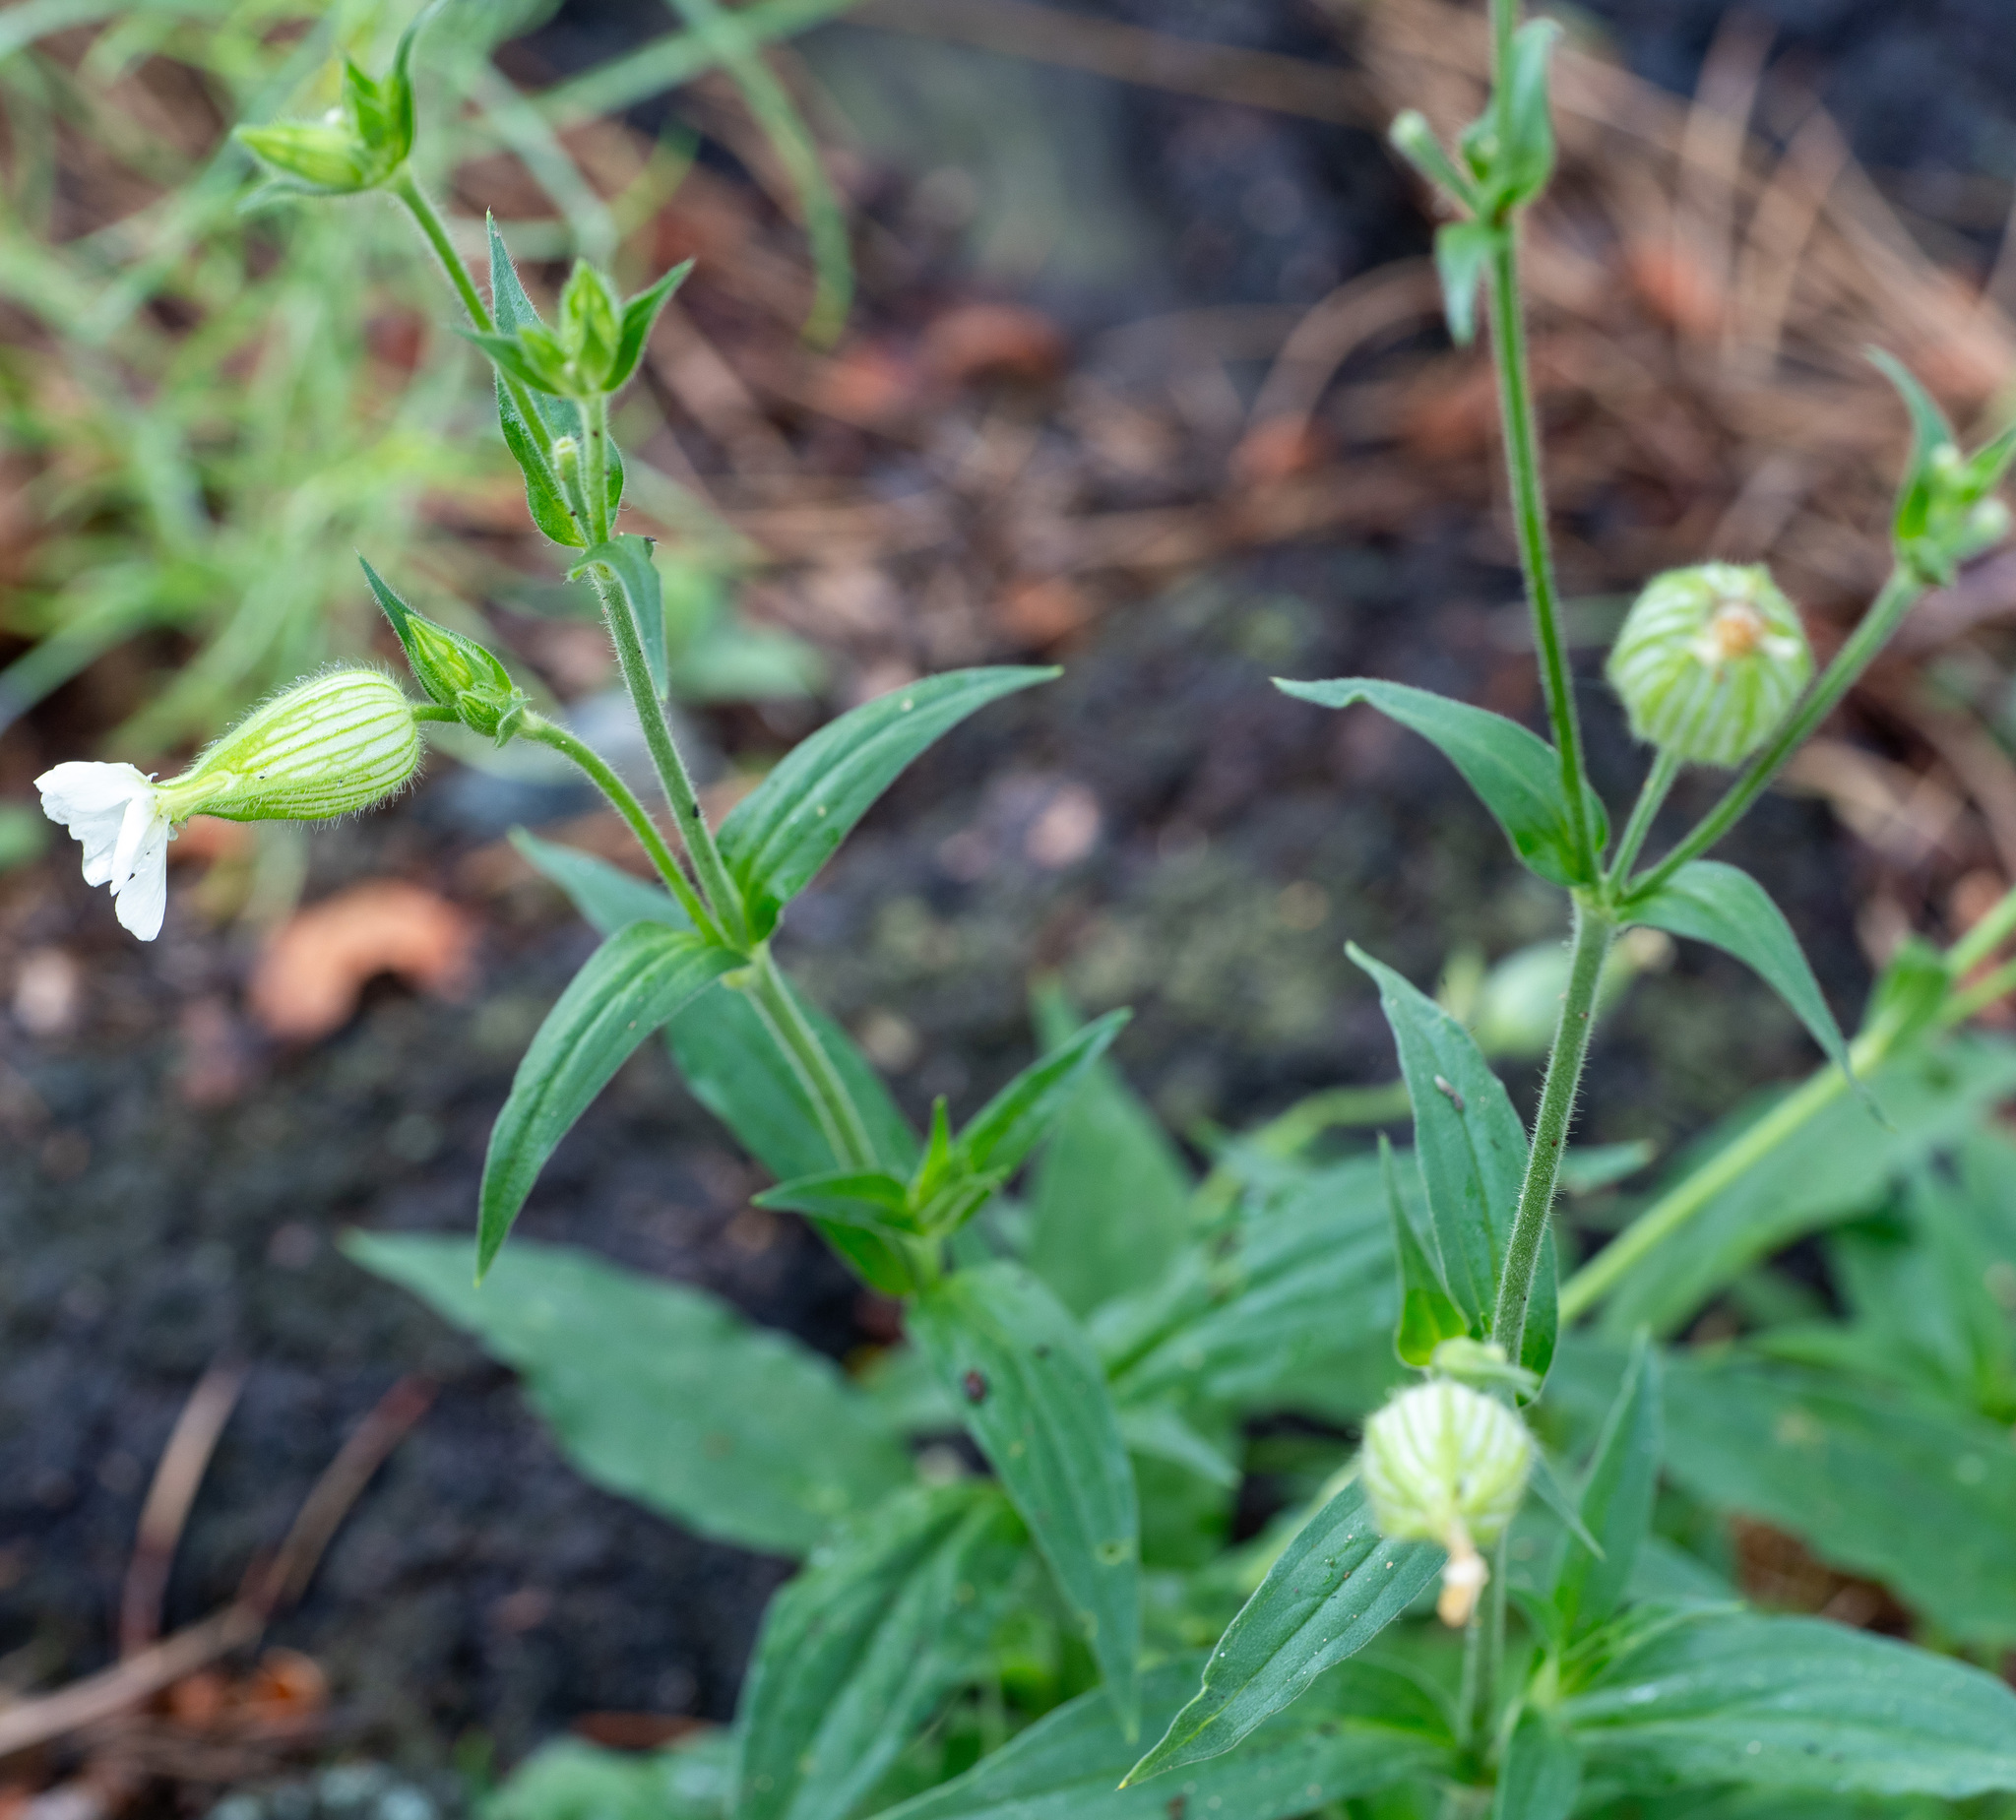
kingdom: Plantae
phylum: Tracheophyta
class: Magnoliopsida
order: Caryophyllales
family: Caryophyllaceae
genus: Silene
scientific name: Silene latifolia
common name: White campion
